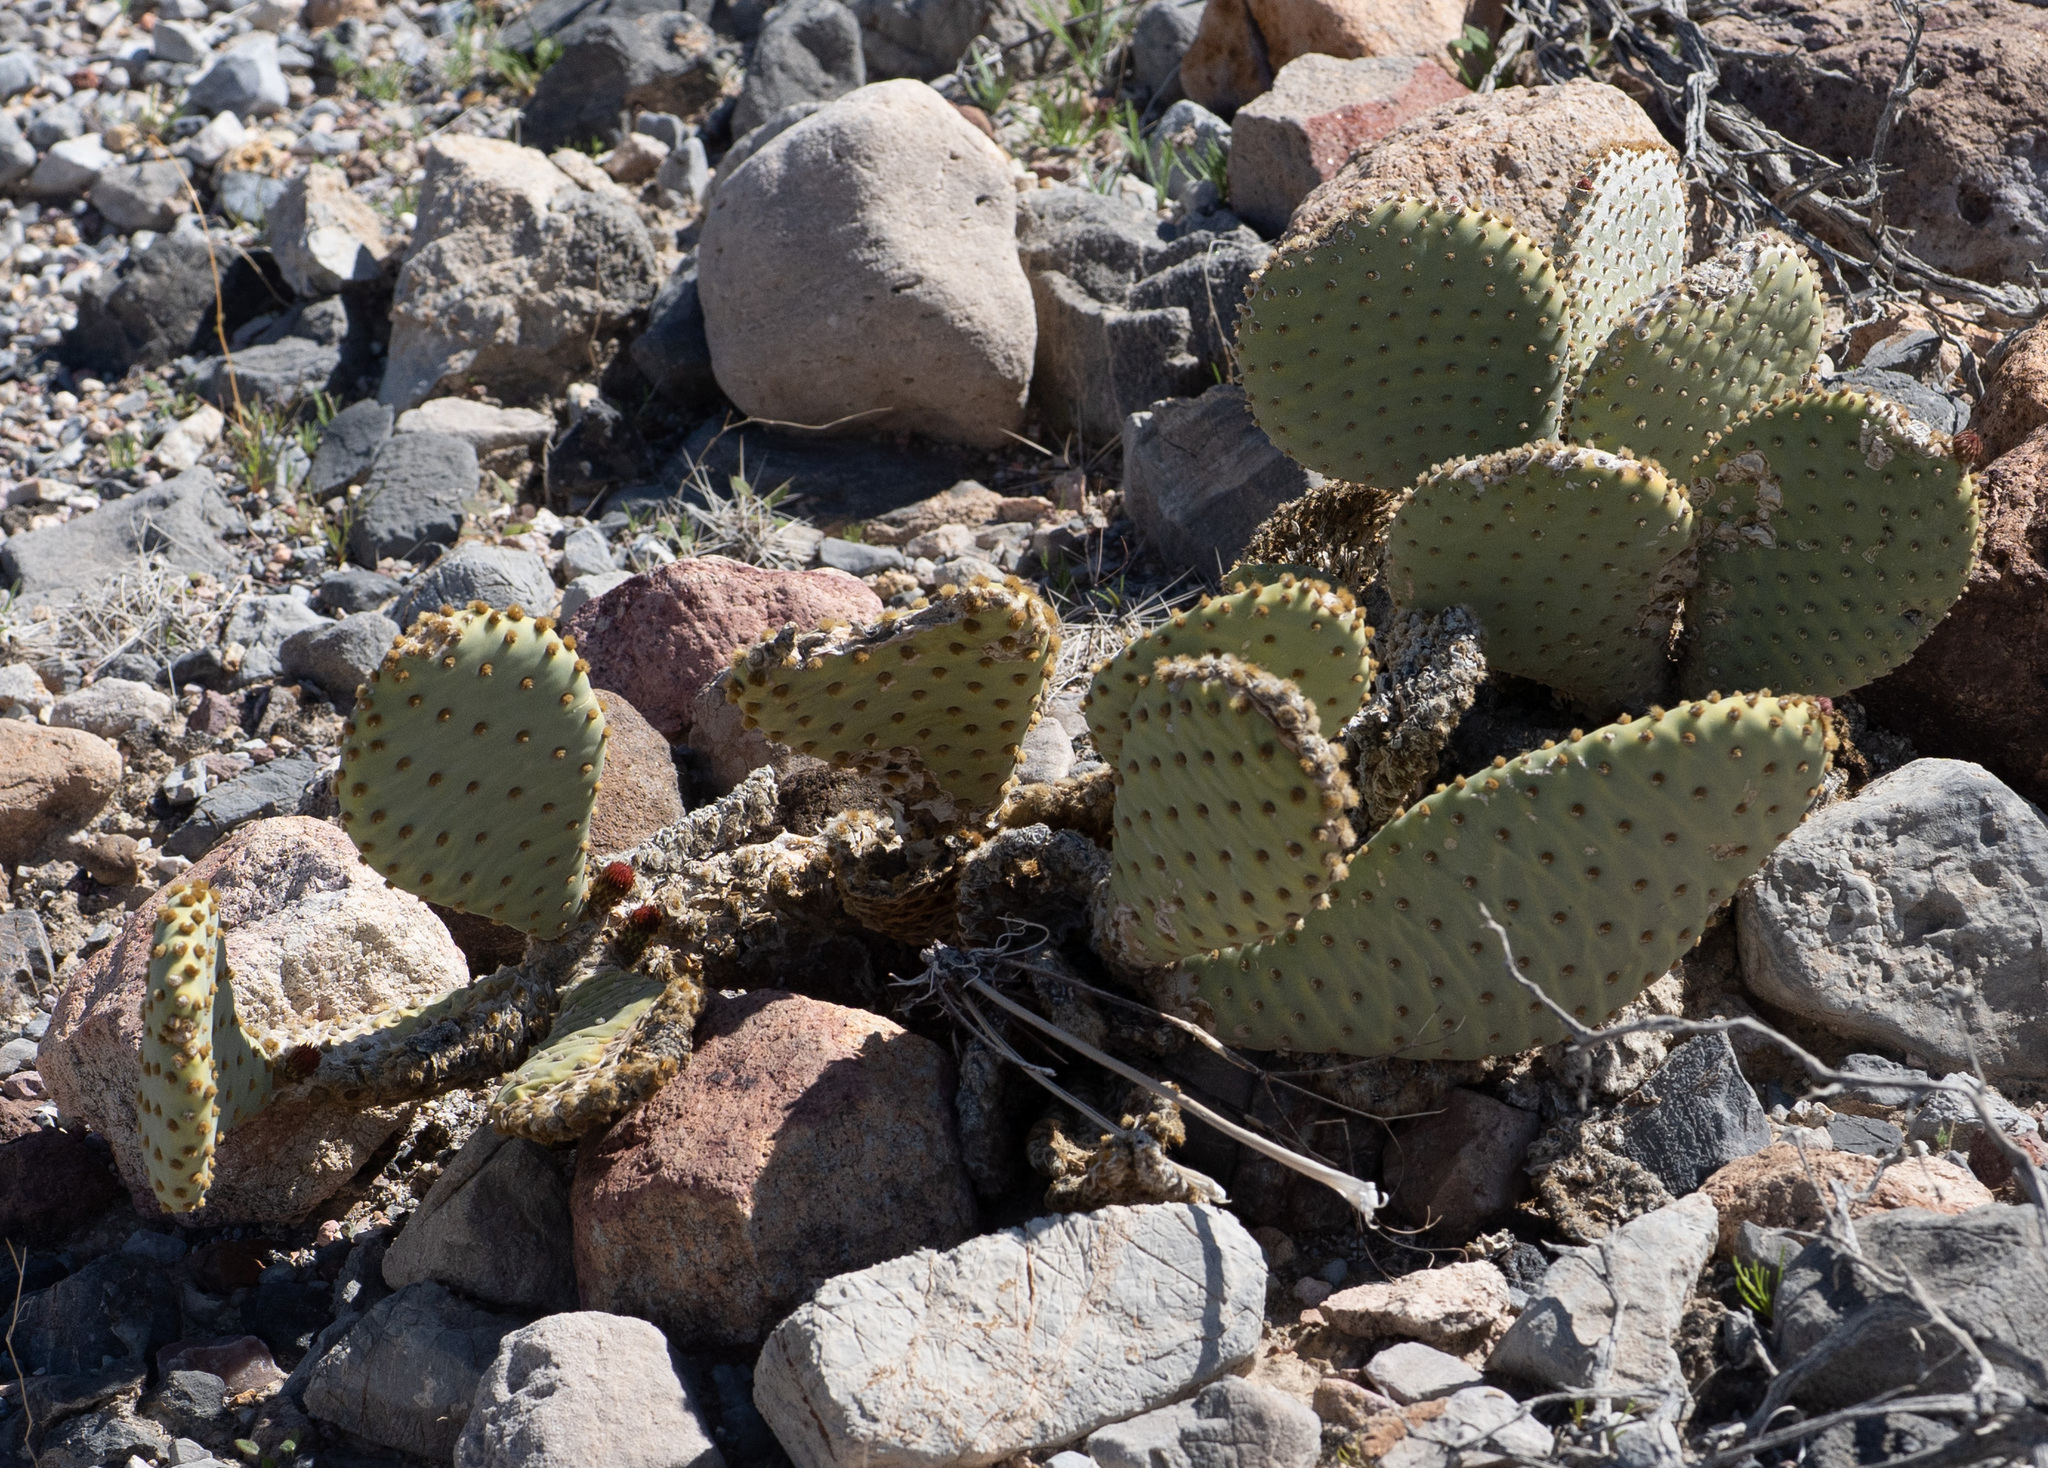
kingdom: Plantae
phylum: Tracheophyta
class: Magnoliopsida
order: Caryophyllales
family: Cactaceae
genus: Opuntia
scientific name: Opuntia basilaris
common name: Beavertail prickly-pear
